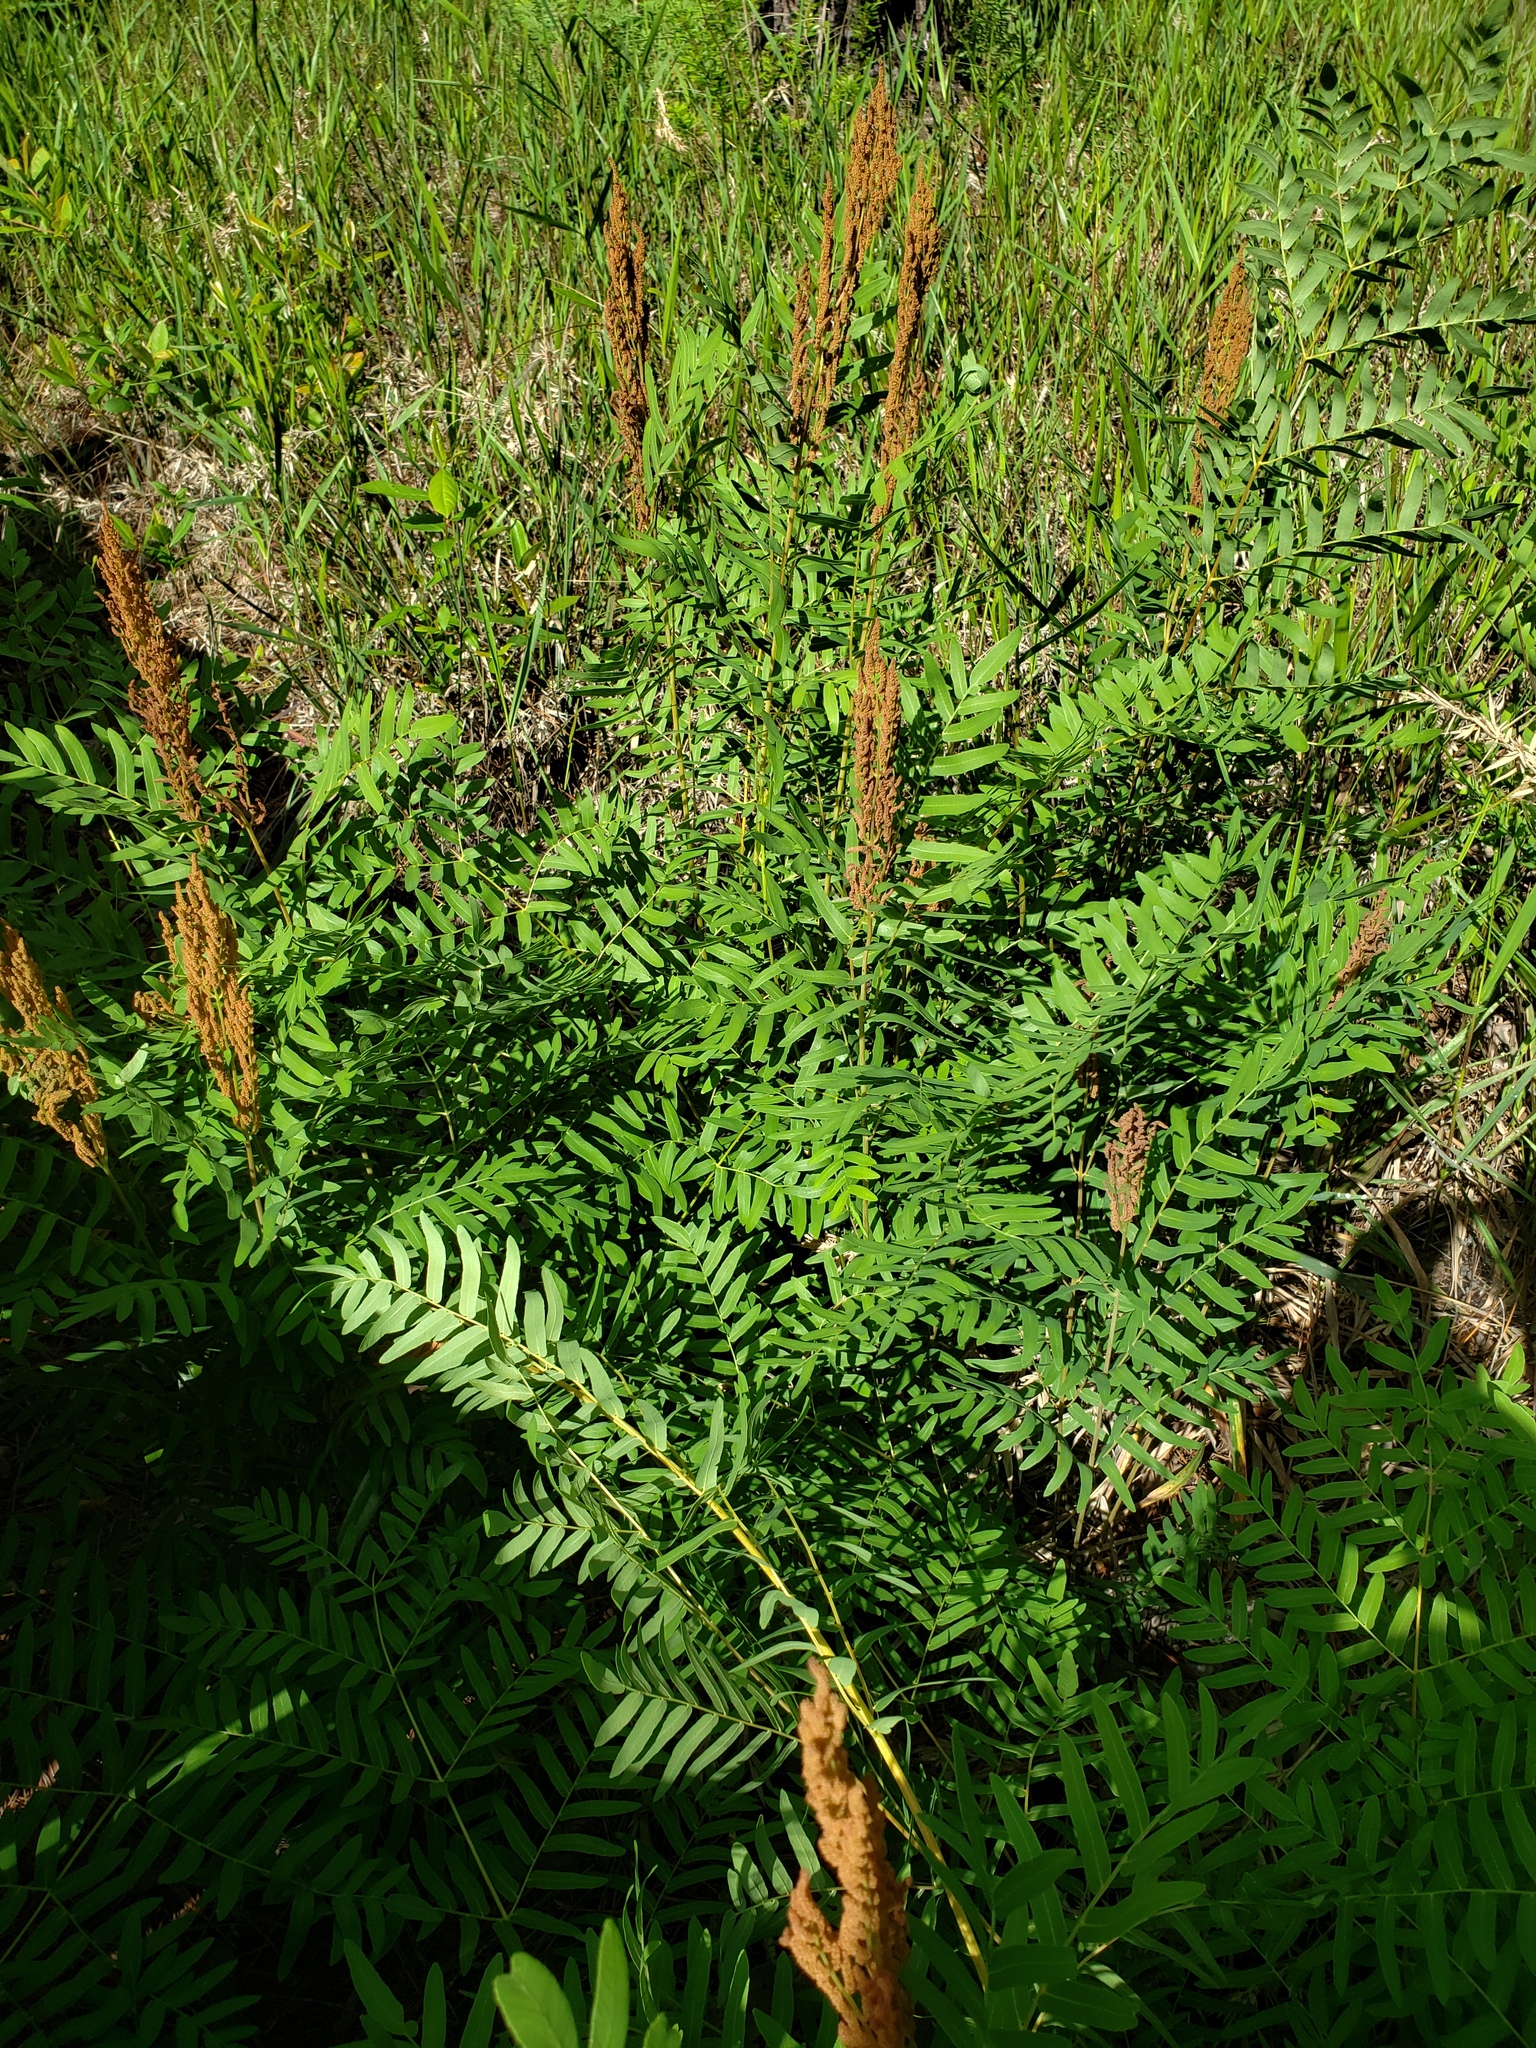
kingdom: Plantae
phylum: Tracheophyta
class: Polypodiopsida
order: Osmundales
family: Osmundaceae
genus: Osmunda
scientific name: Osmunda spectabilis
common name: American royal fern
